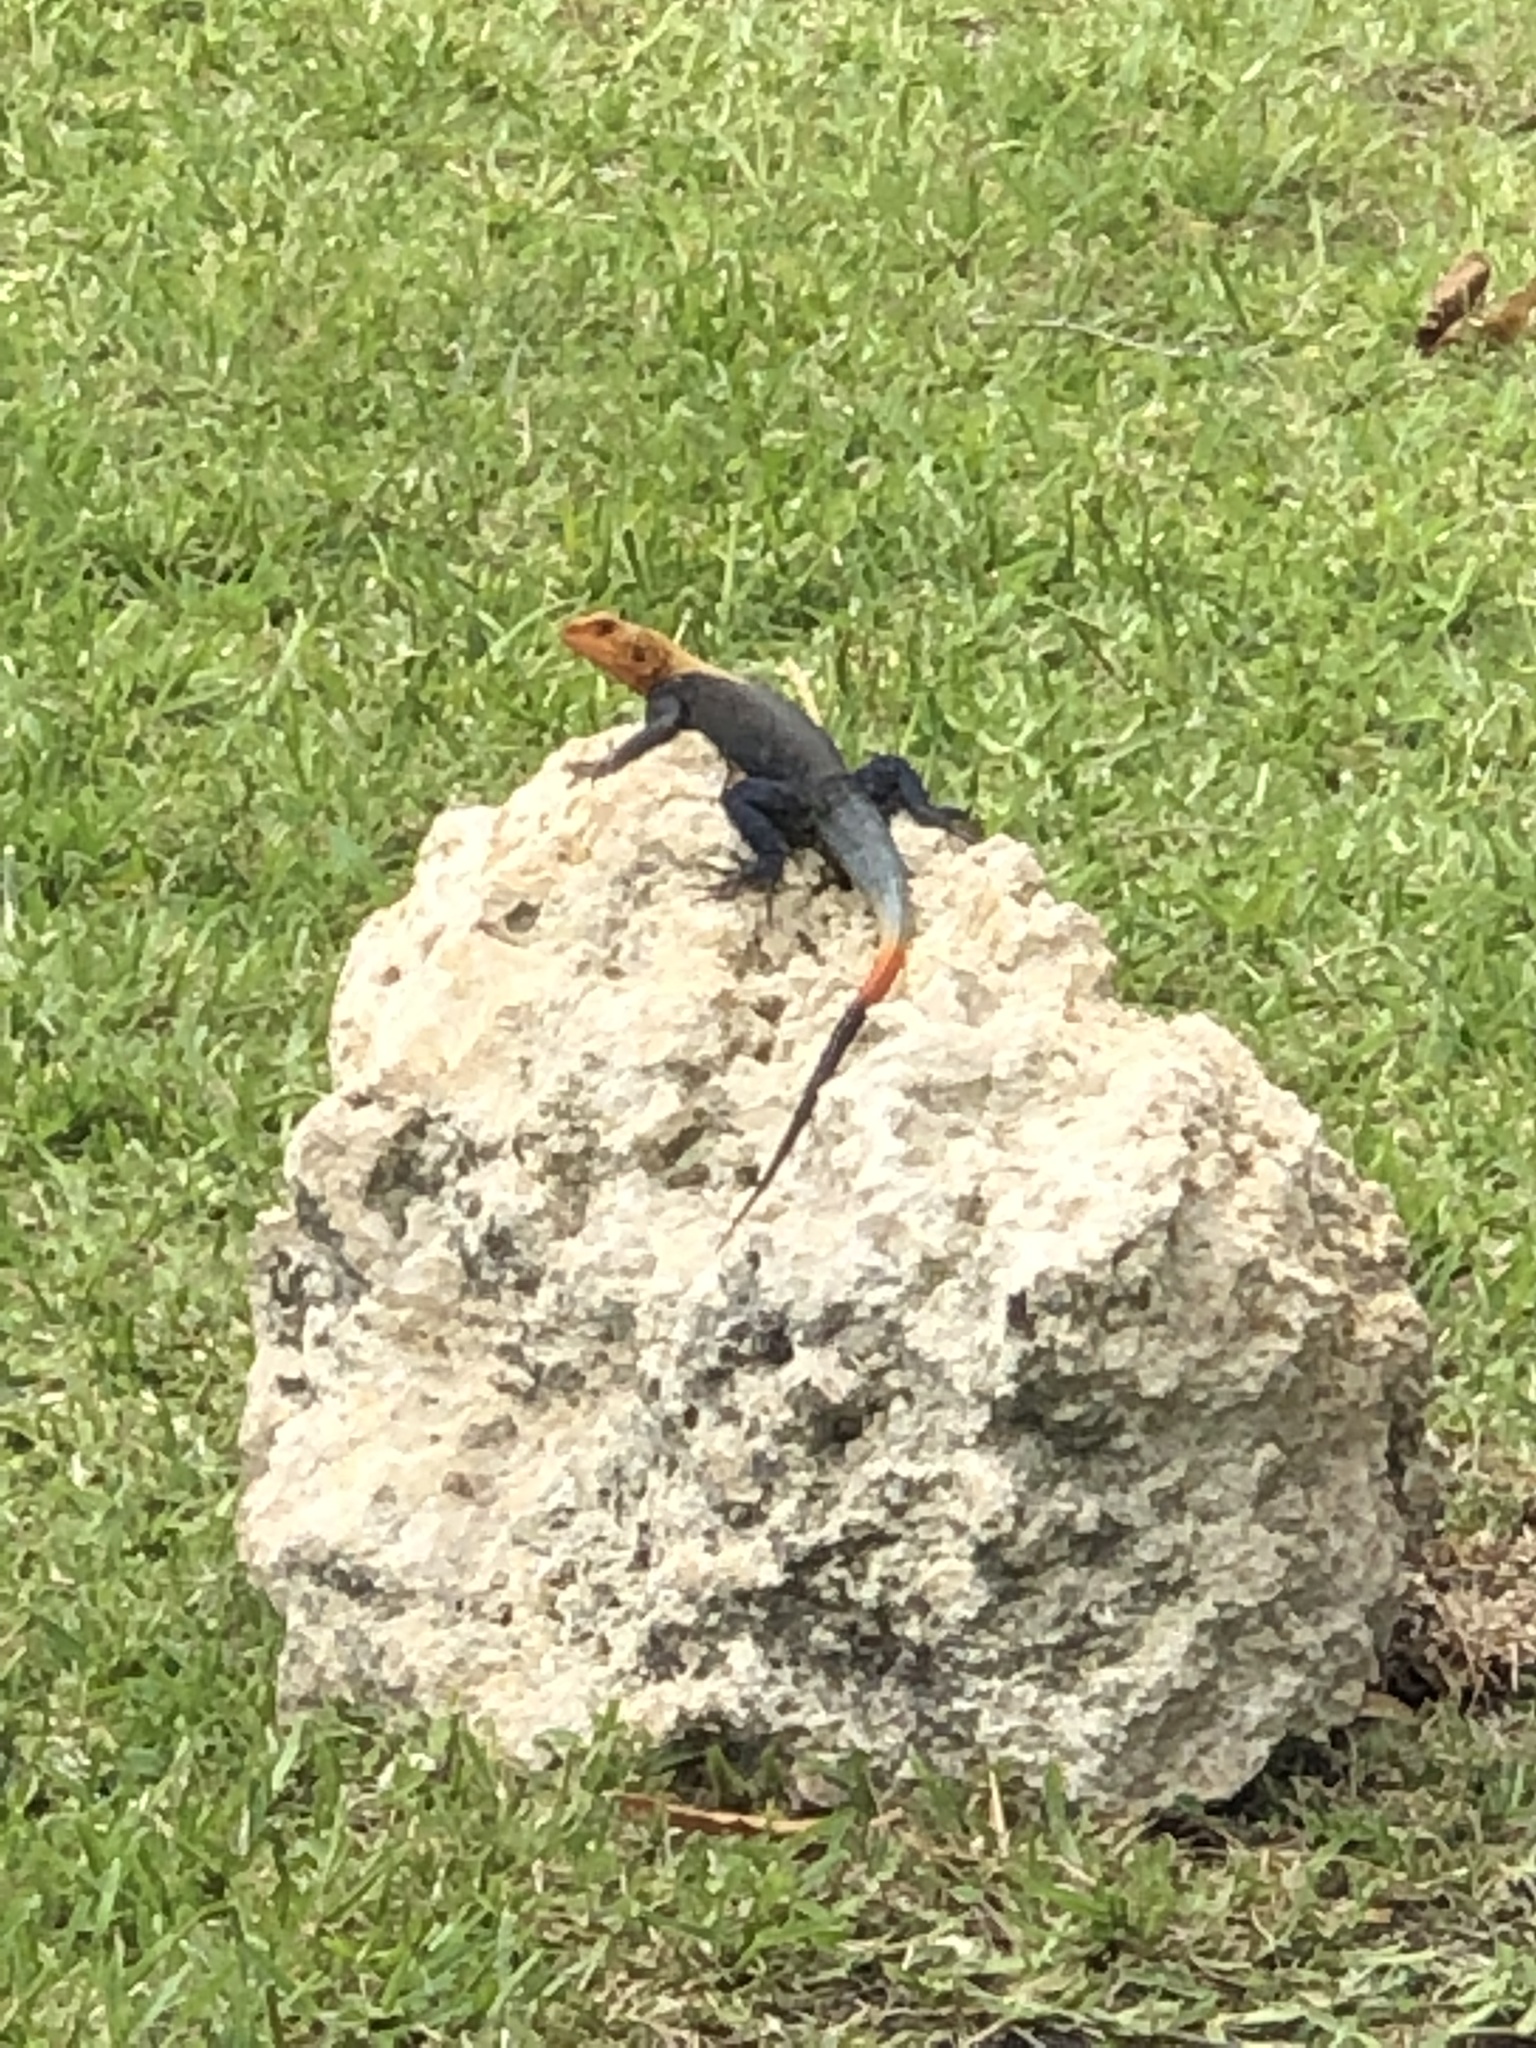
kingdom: Animalia
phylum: Chordata
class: Squamata
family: Agamidae
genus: Agama
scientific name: Agama picticauda
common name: Red-headed agama
